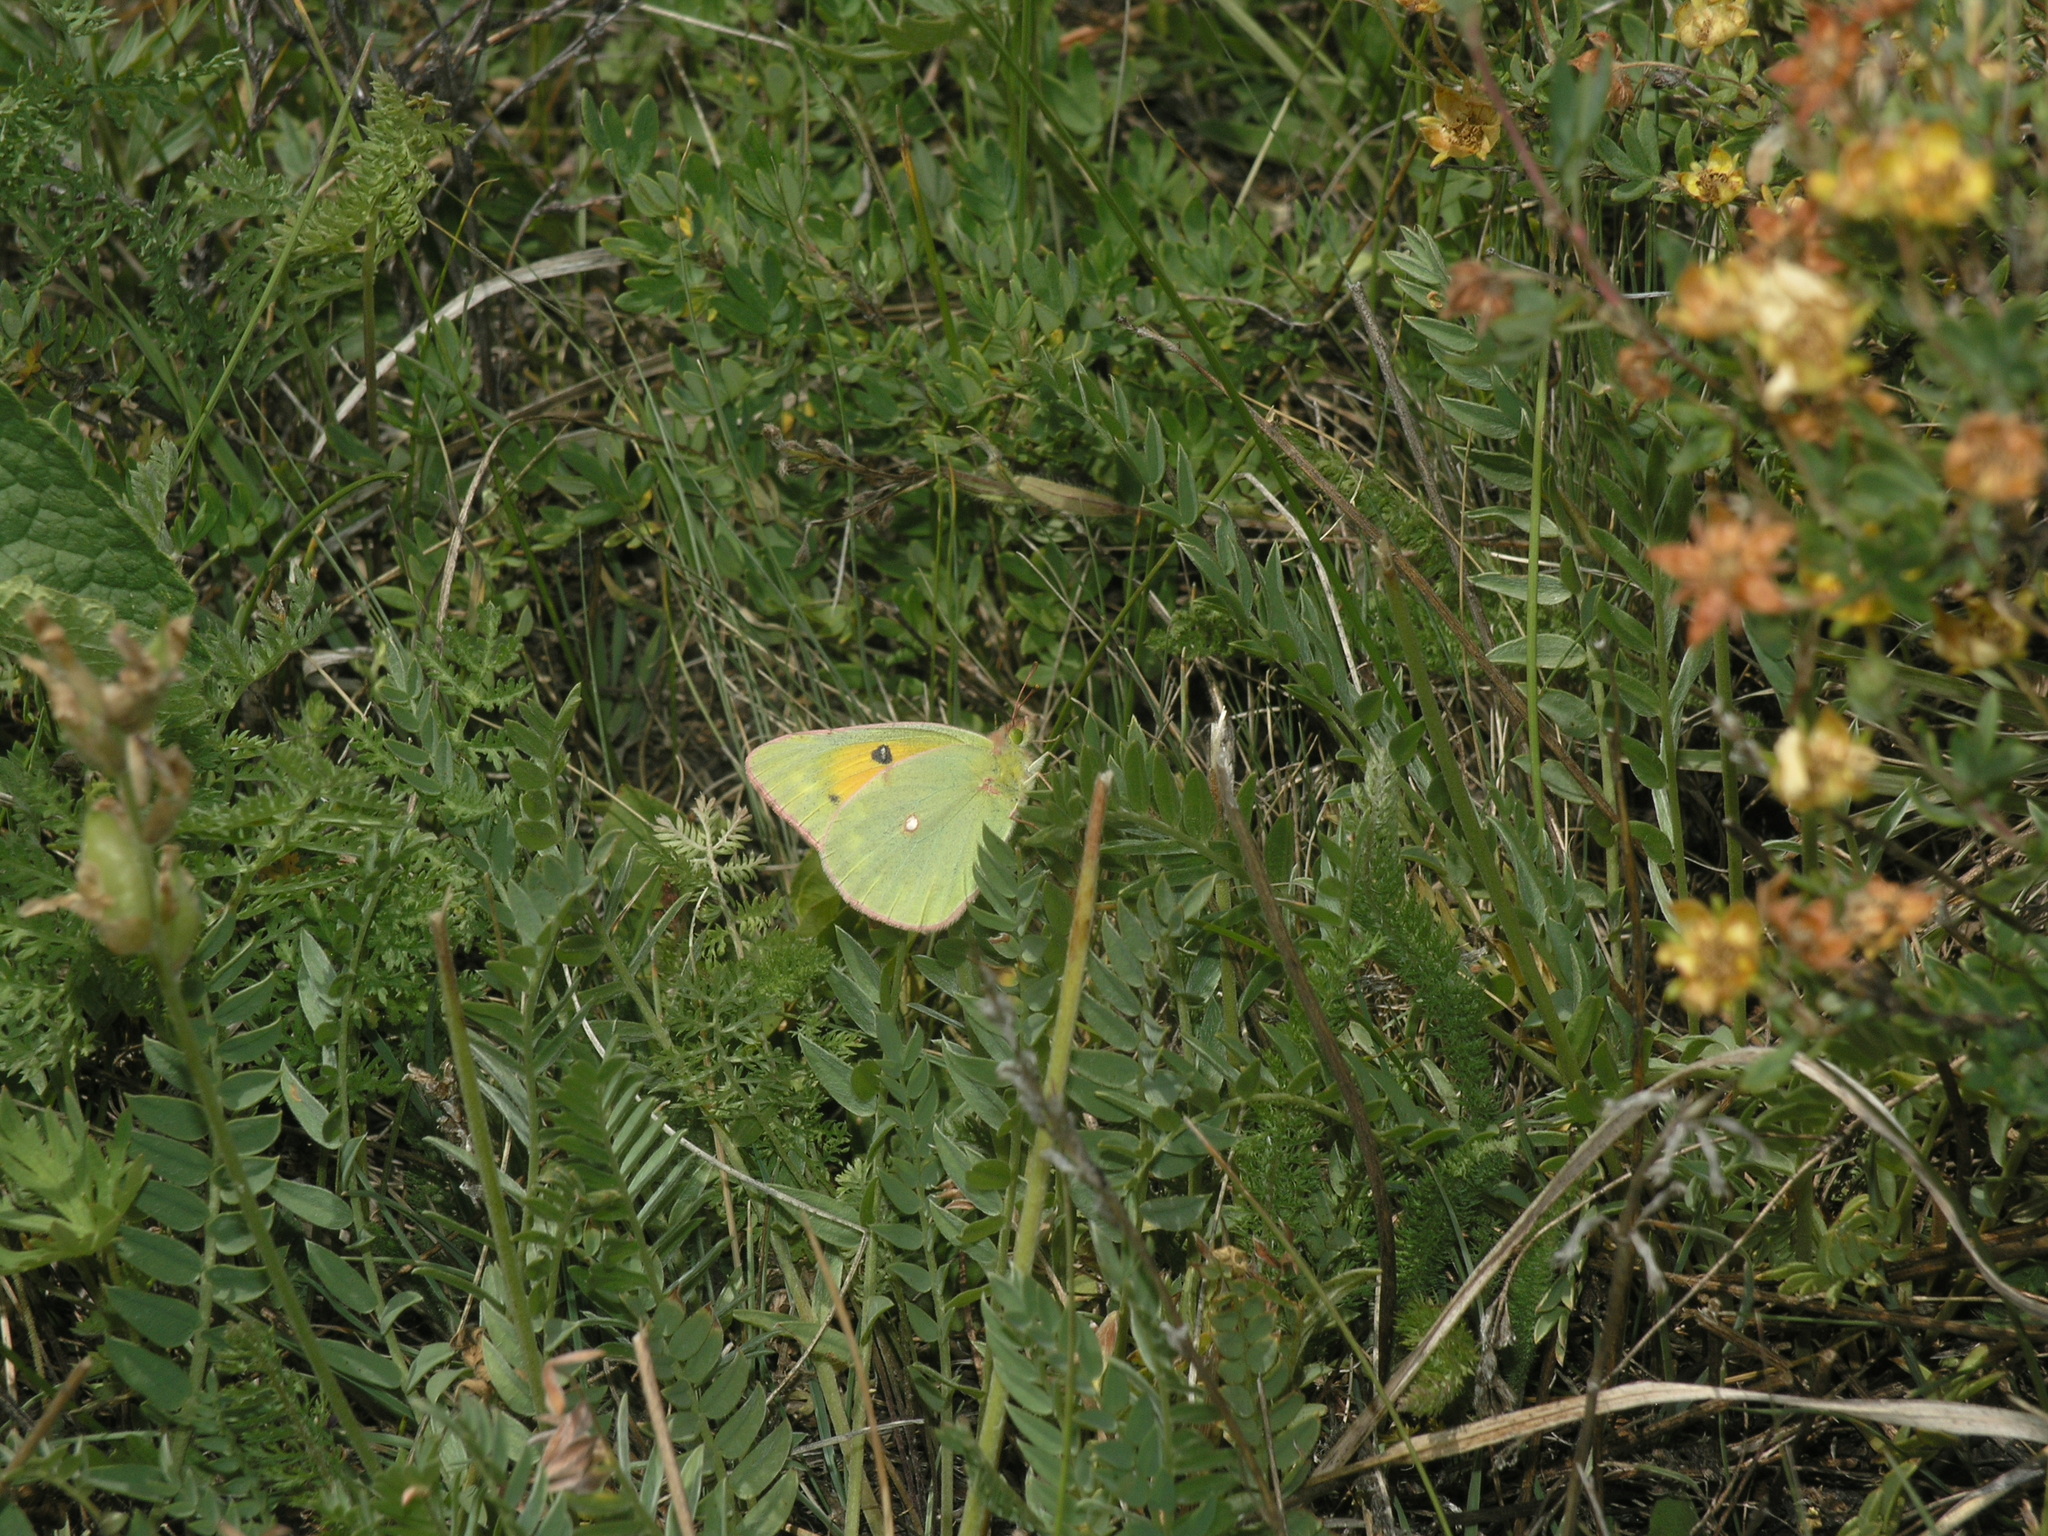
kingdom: Animalia
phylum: Arthropoda
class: Insecta
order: Lepidoptera
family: Pieridae
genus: Colias
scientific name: Colias chrysotheme
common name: Lesser clouded yellow
